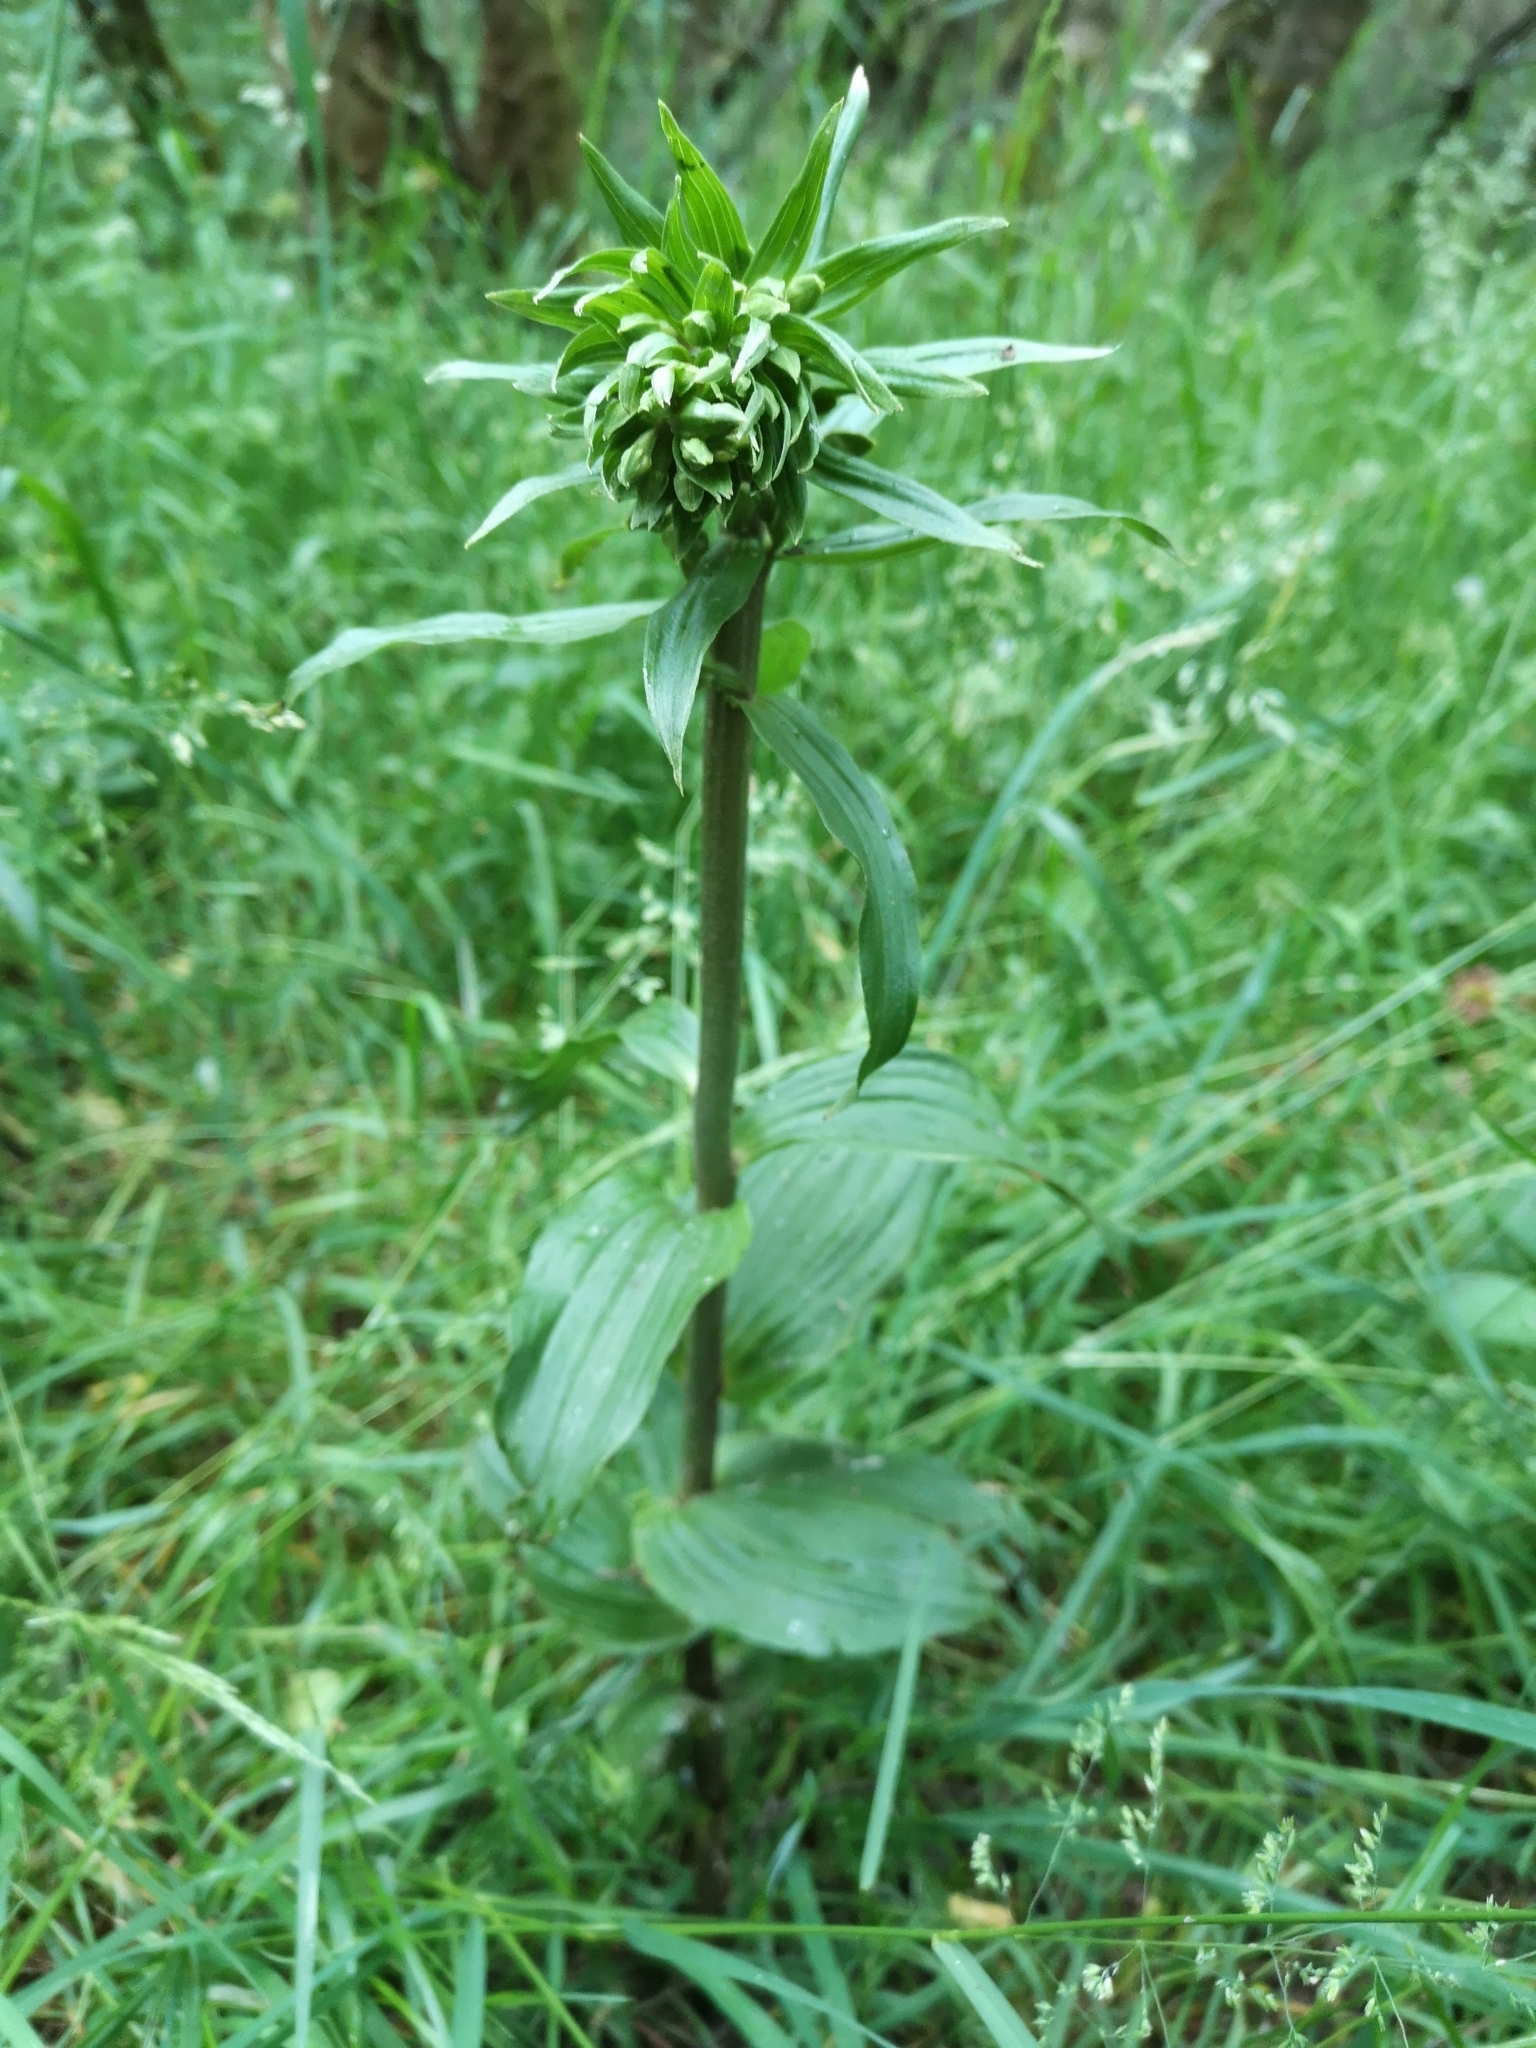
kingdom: Plantae
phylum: Tracheophyta
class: Liliopsida
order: Asparagales
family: Orchidaceae
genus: Epipactis
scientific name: Epipactis helleborine
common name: Broad-leaved helleborine
